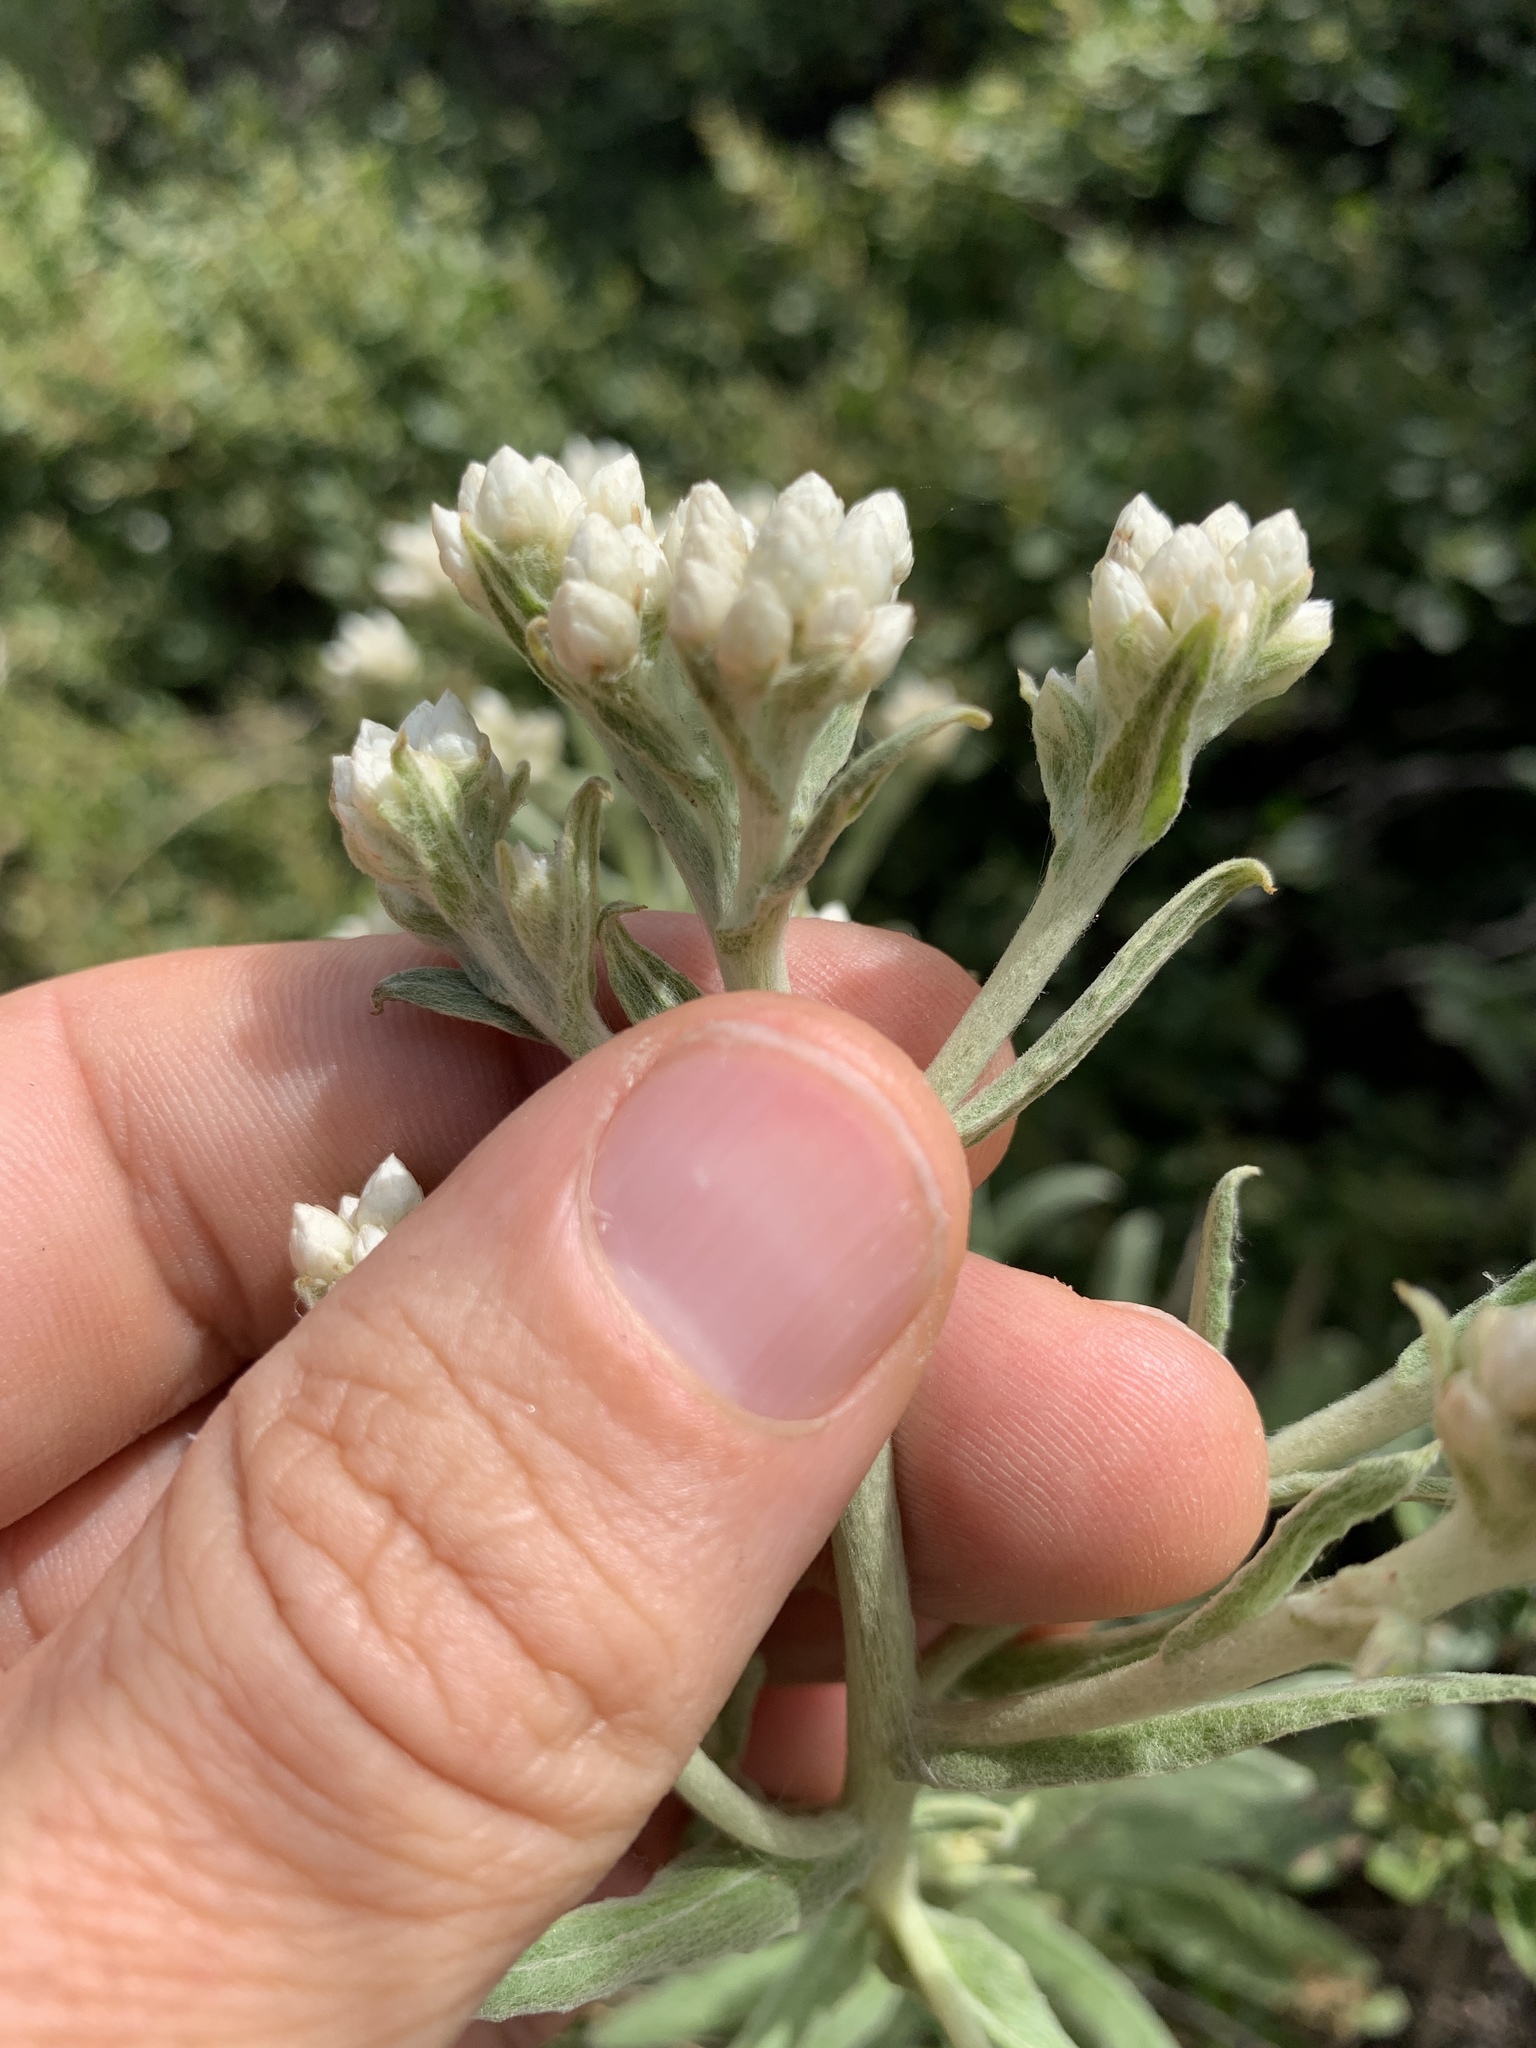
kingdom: Plantae
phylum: Tracheophyta
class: Magnoliopsida
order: Asterales
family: Asteraceae
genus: Pseudognaphalium
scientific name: Pseudognaphalium californicum
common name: California rabbit-tobacco
